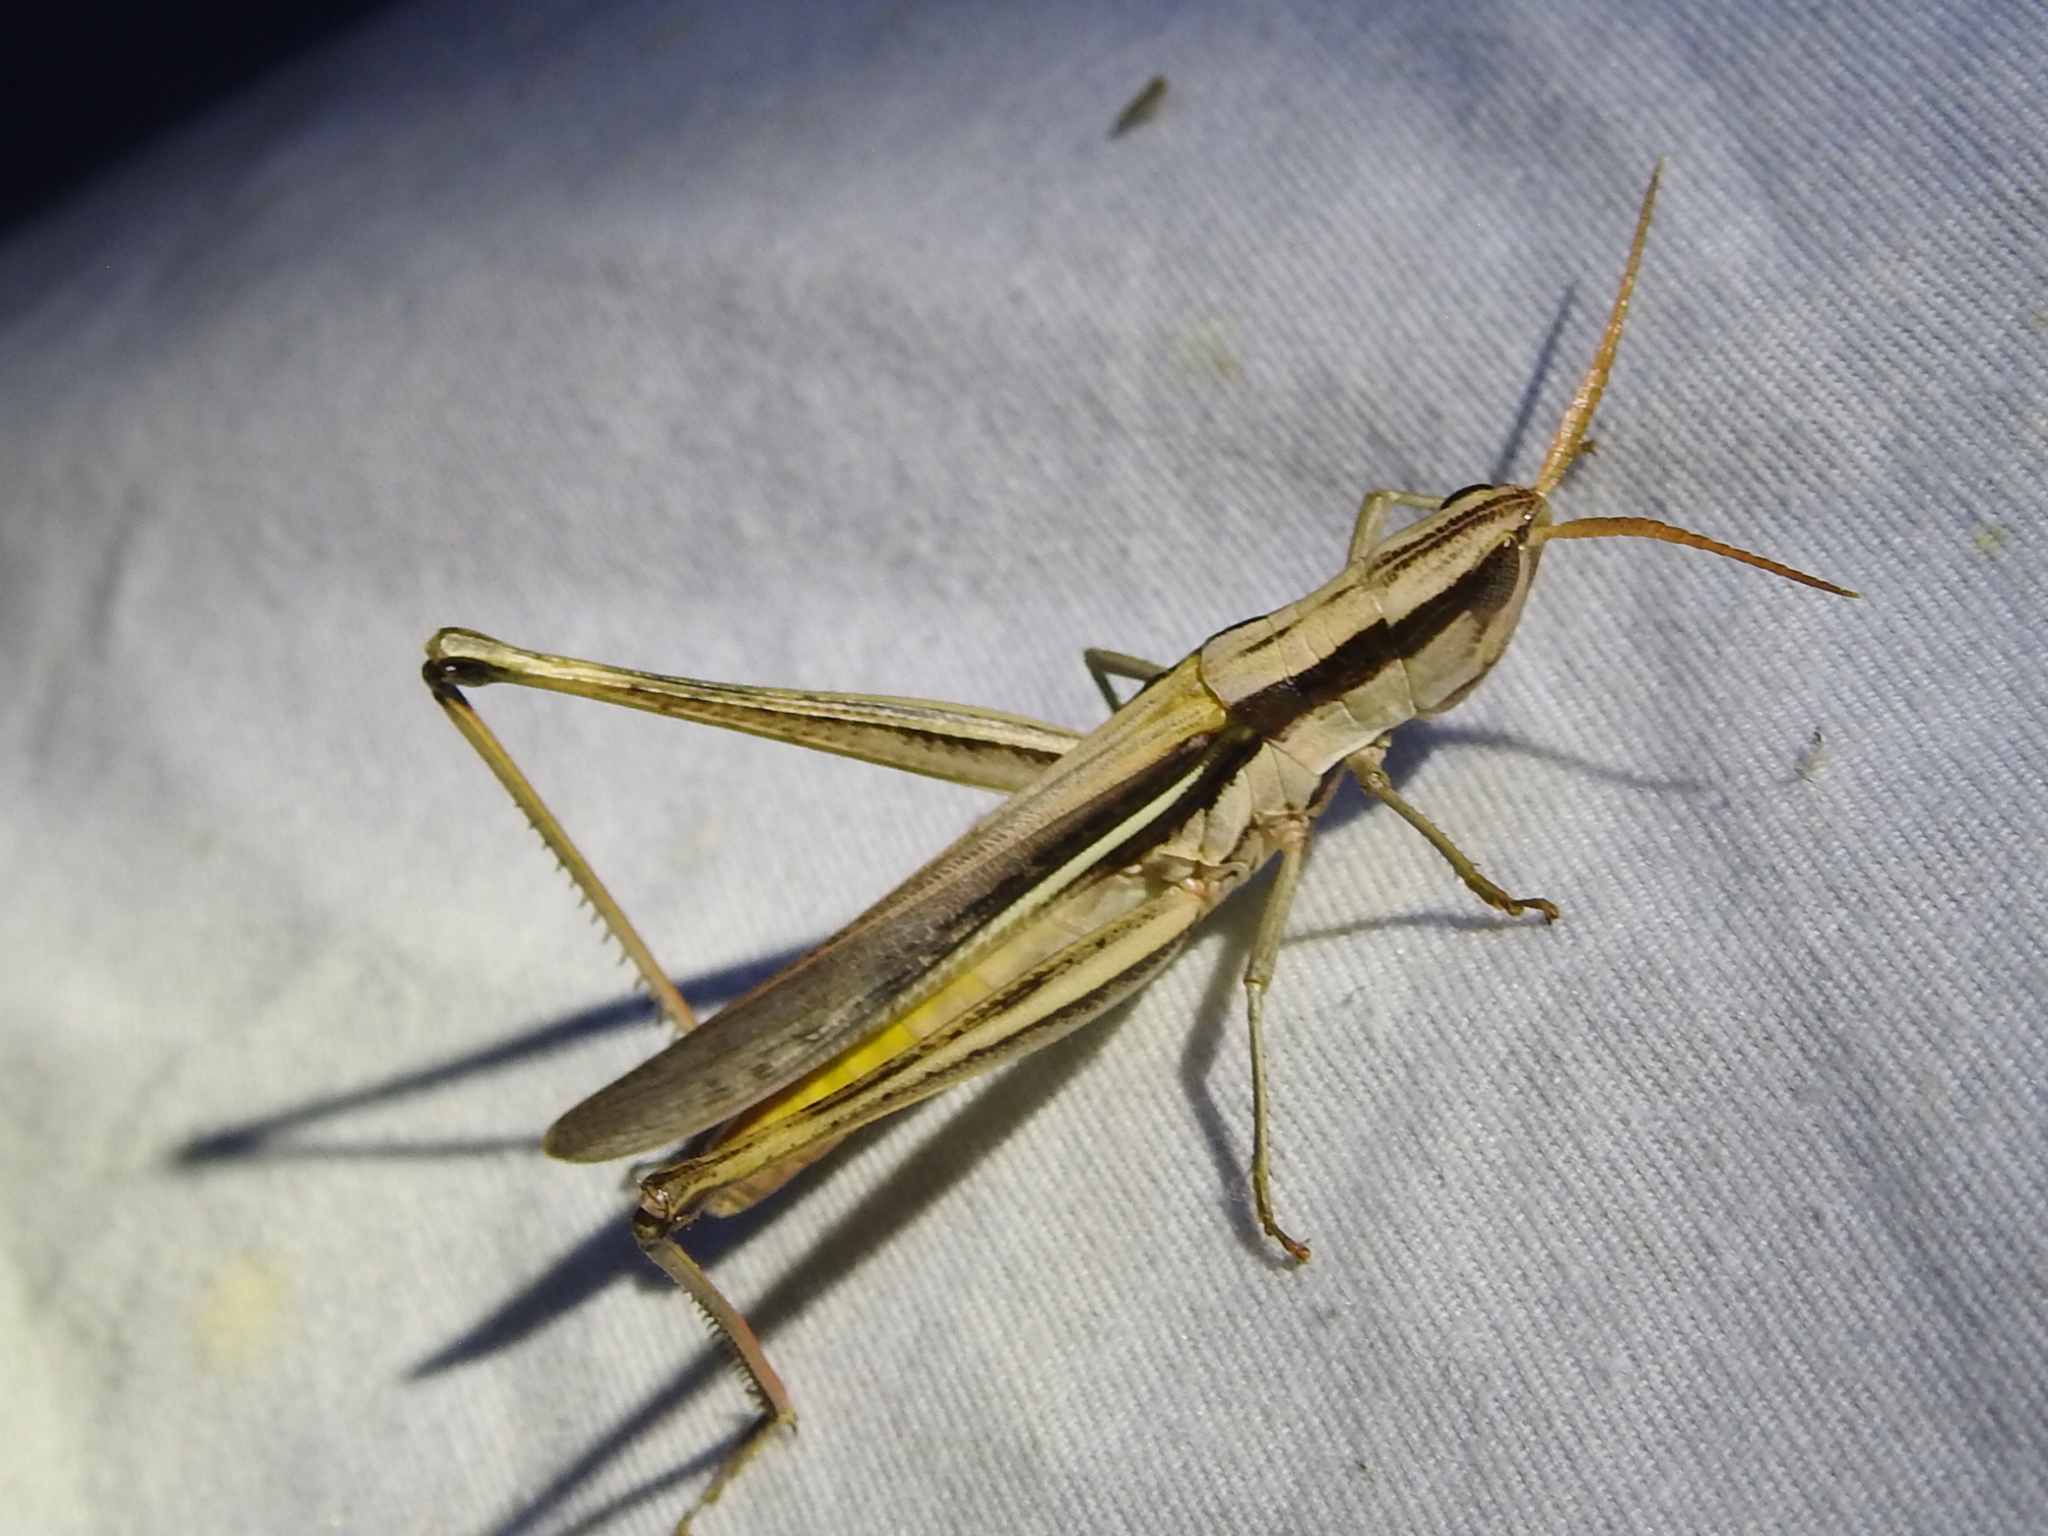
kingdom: Animalia
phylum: Arthropoda
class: Insecta
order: Orthoptera
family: Acrididae
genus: Mermiria
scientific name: Mermiria bivittata
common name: Two-striped mermiria grasshopper
